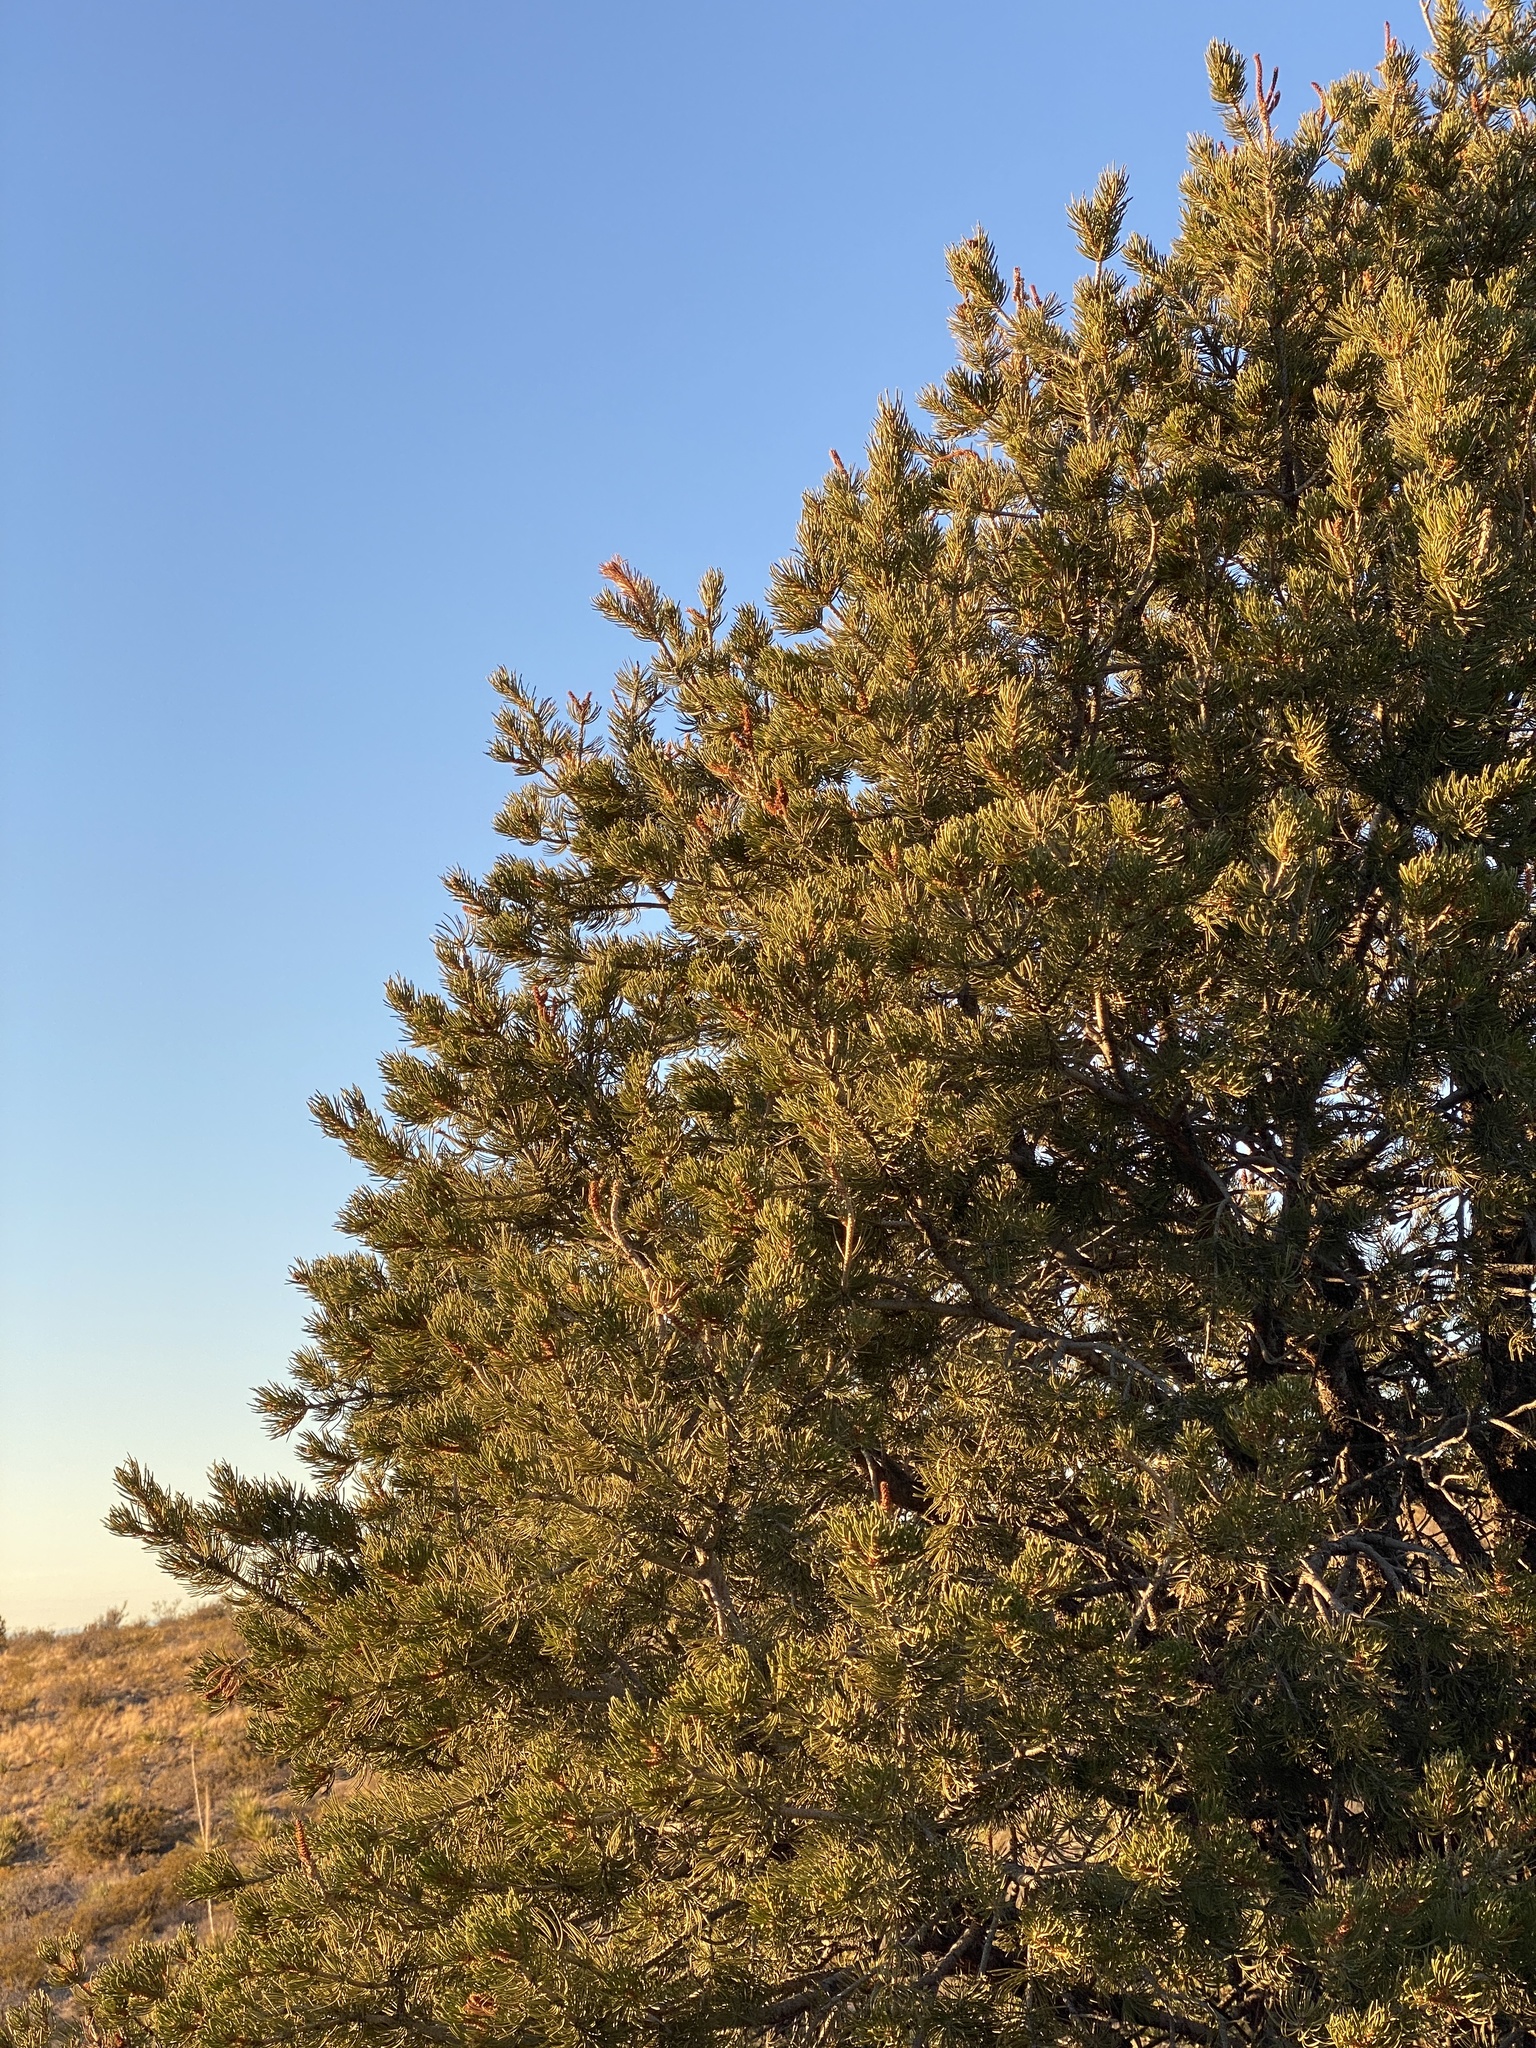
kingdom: Plantae
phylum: Tracheophyta
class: Pinopsida
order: Pinales
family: Pinaceae
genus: Pinus
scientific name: Pinus edulis
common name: Colorado pinyon
